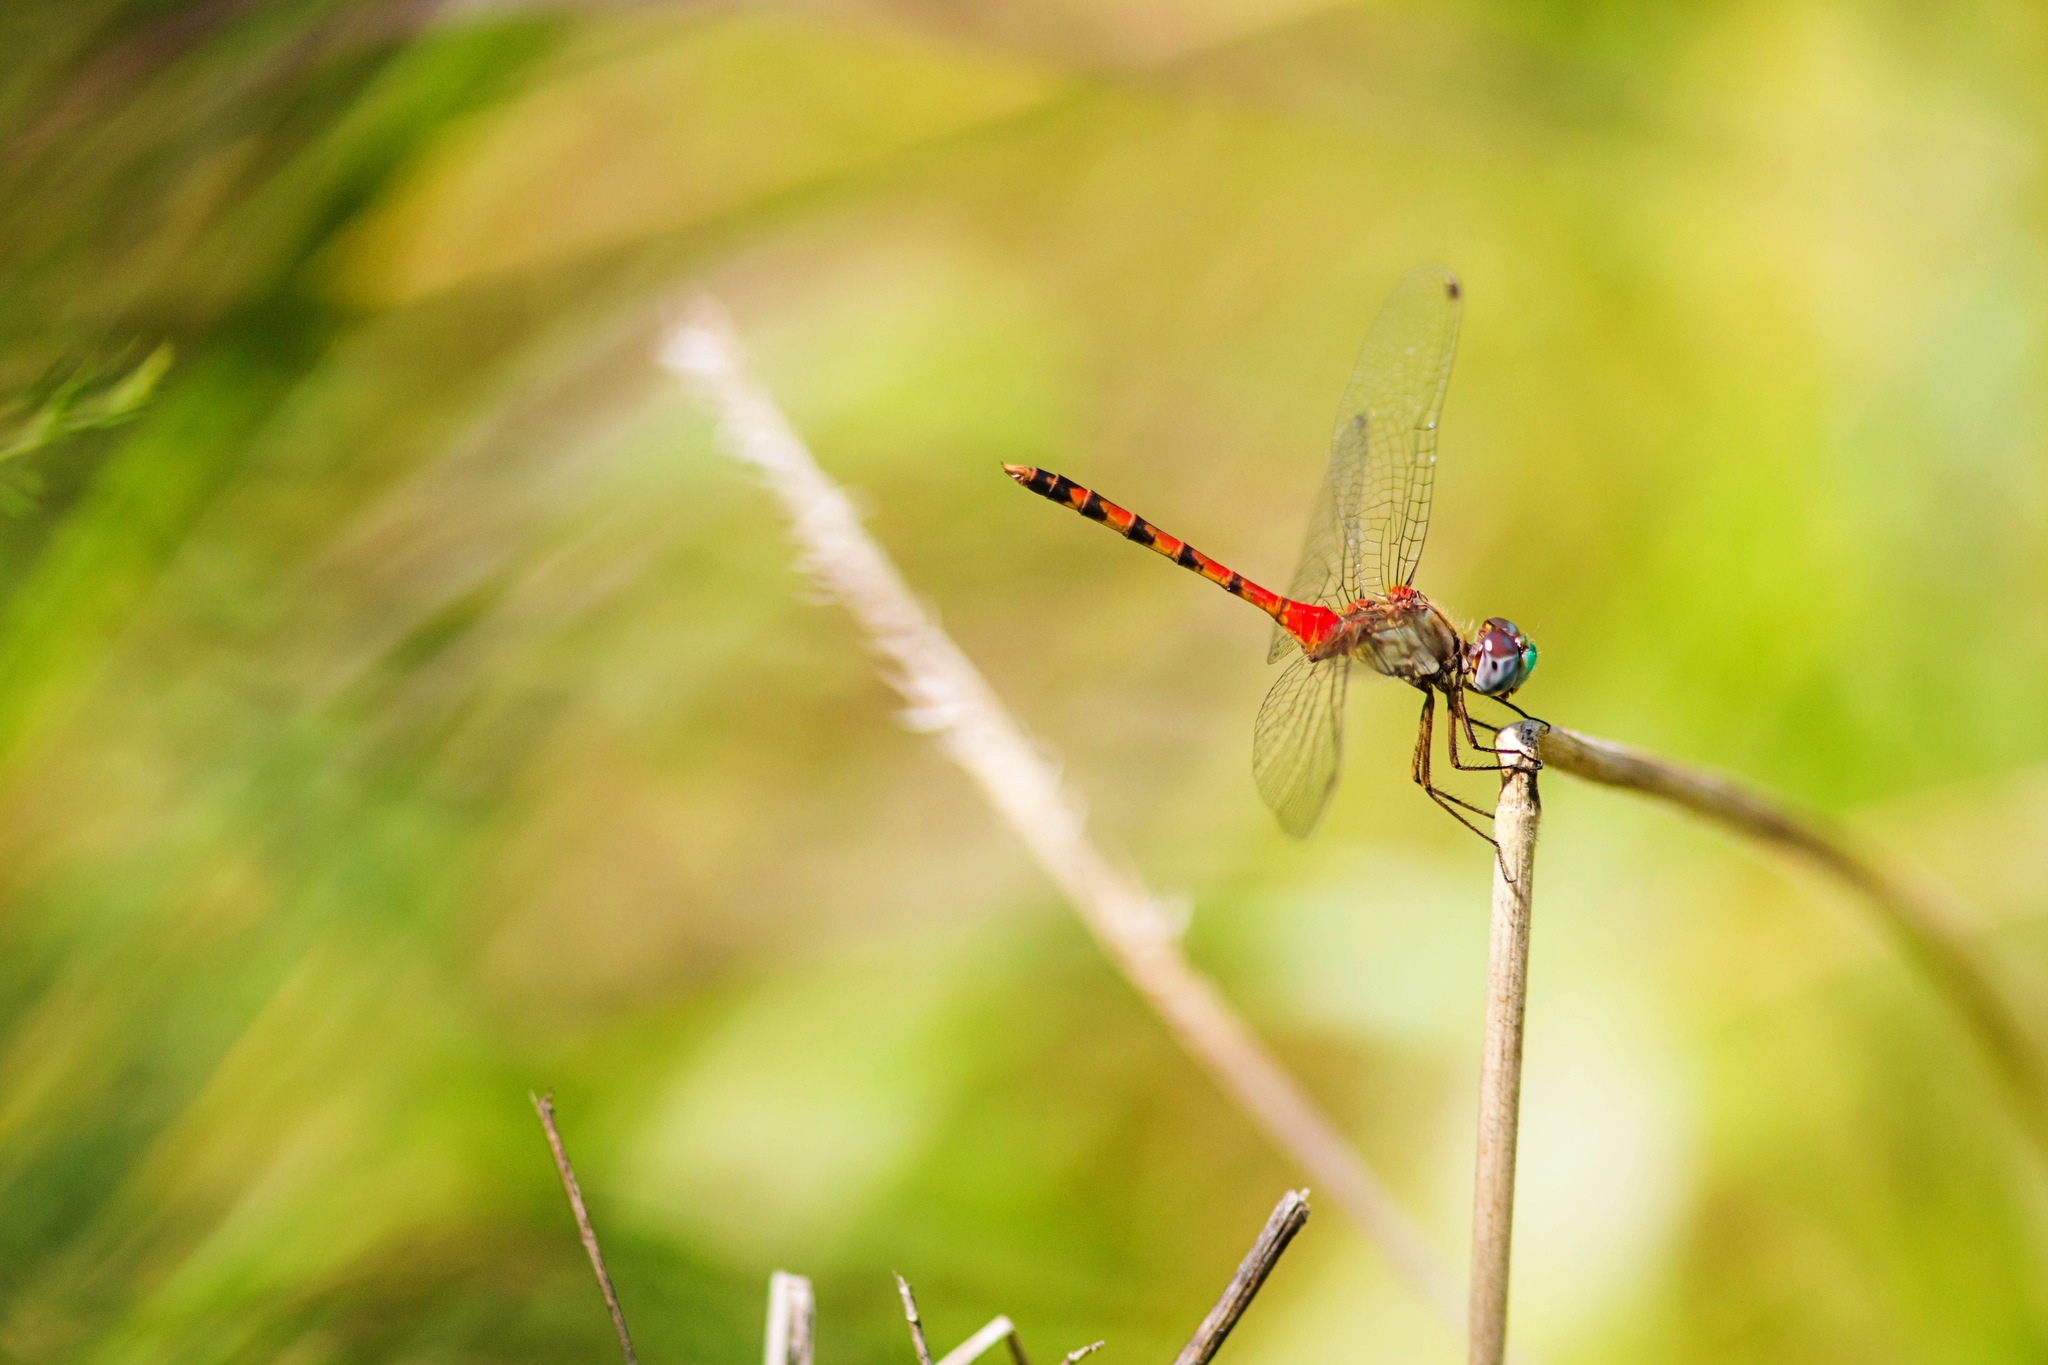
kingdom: Animalia
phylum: Arthropoda
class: Insecta
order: Odonata
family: Libellulidae
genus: Sympetrum
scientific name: Sympetrum ambiguum
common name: Blue-faced meadowhawk
